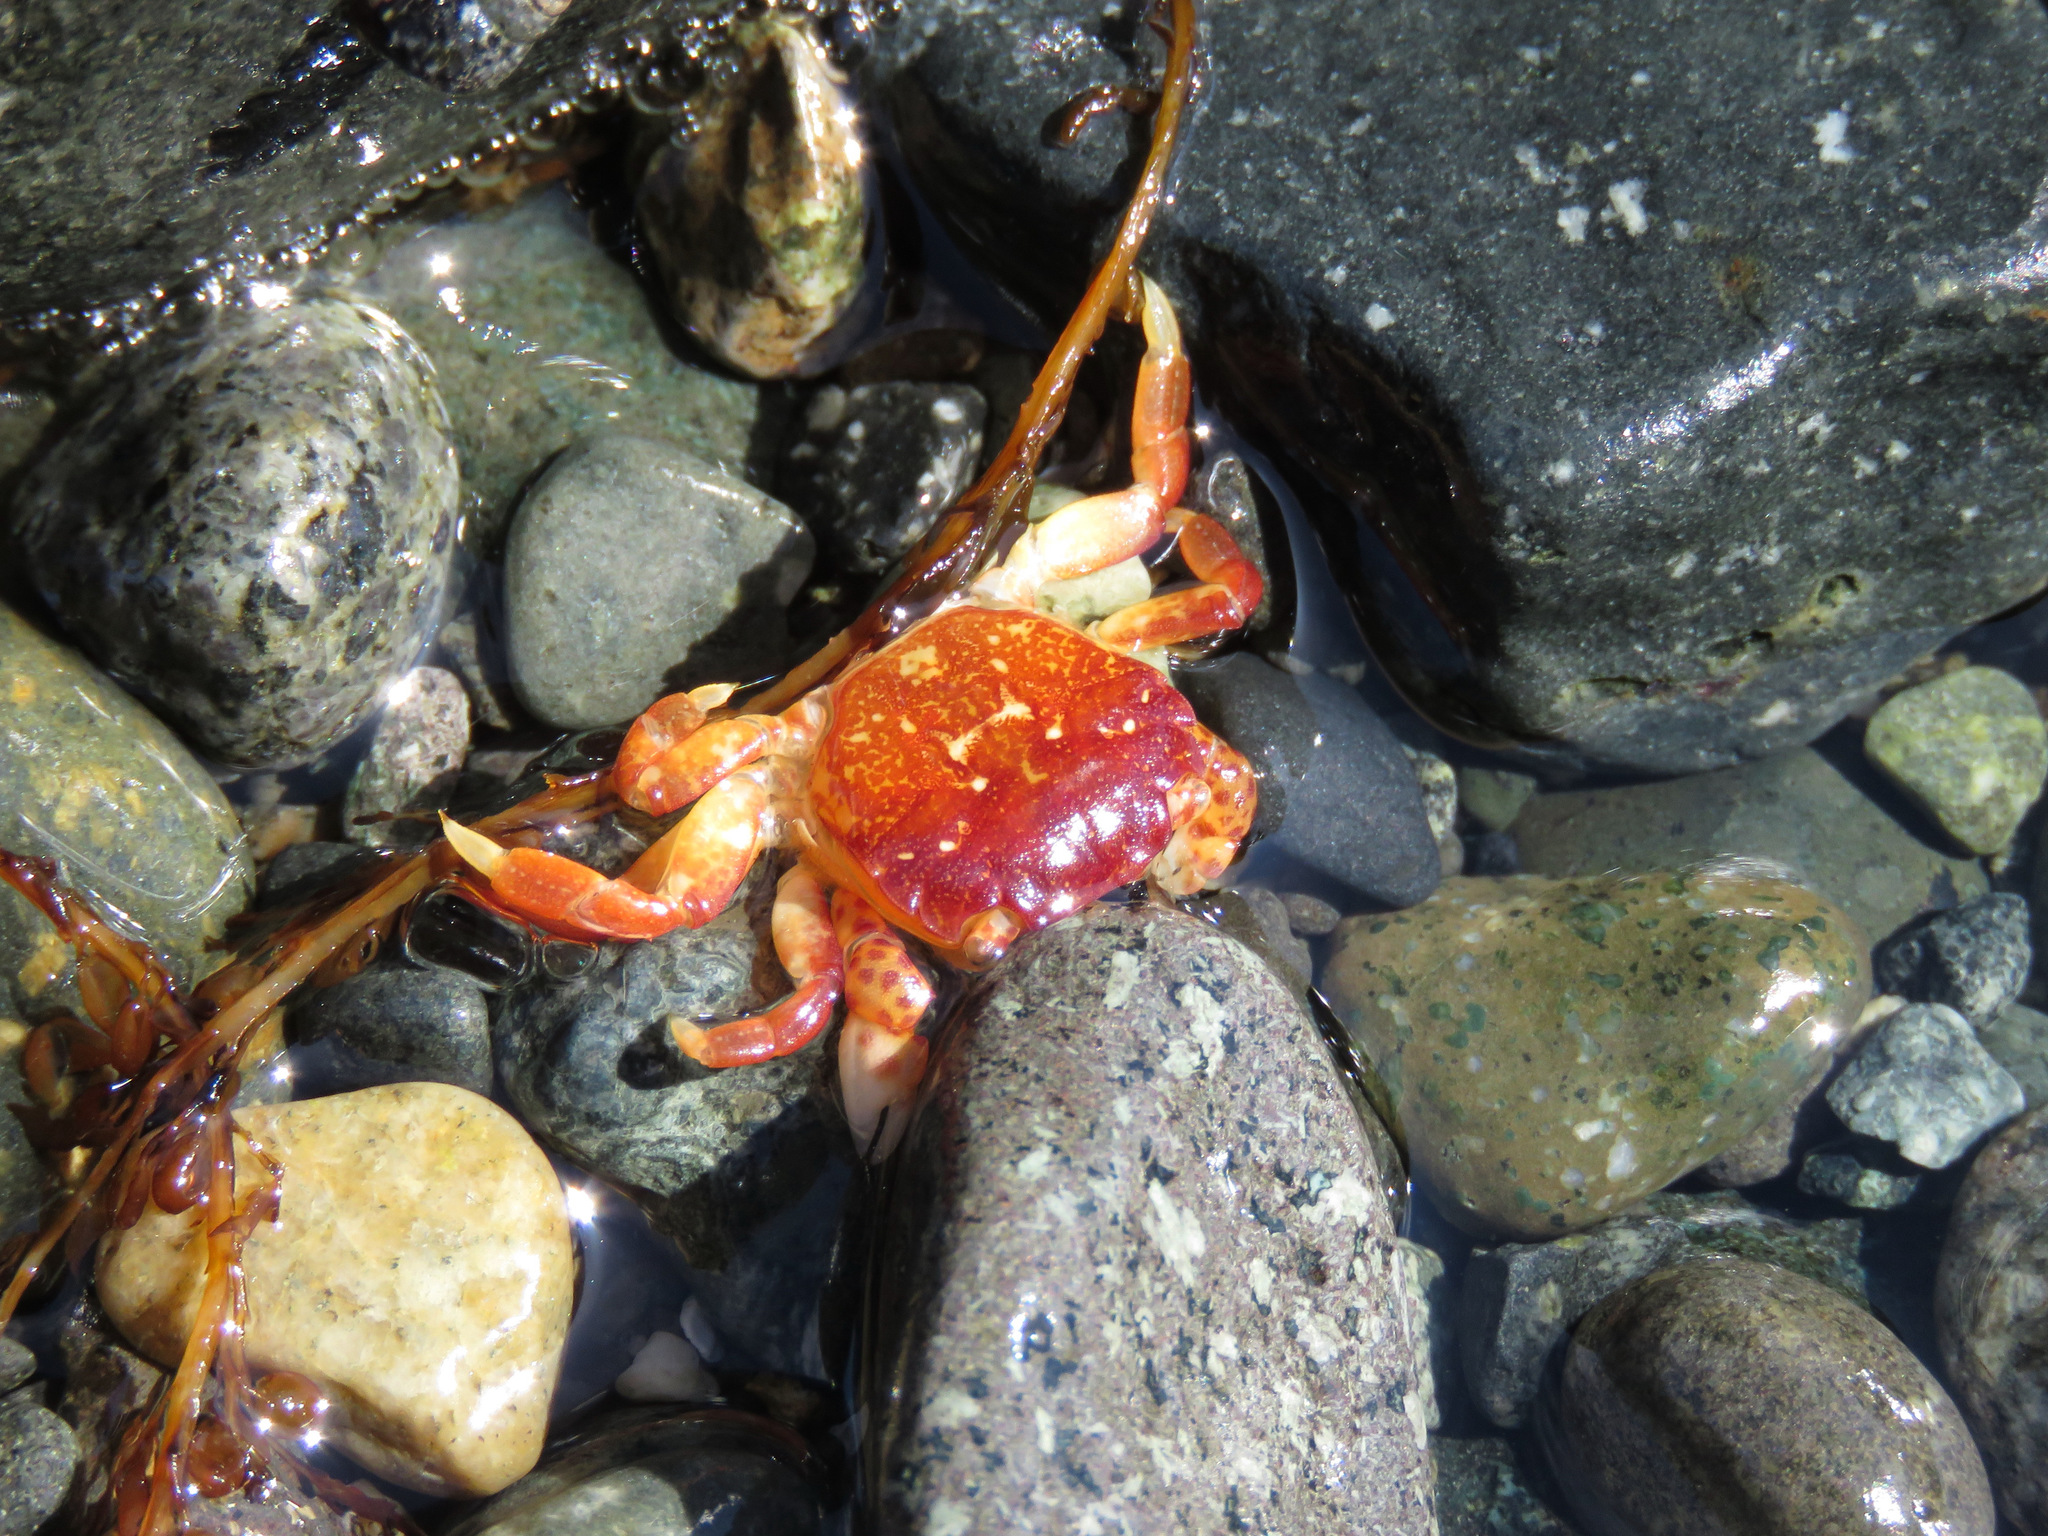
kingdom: Animalia
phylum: Arthropoda
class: Malacostraca
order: Decapoda
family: Varunidae
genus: Hemigrapsus
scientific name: Hemigrapsus nudus
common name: Purple shore crab
